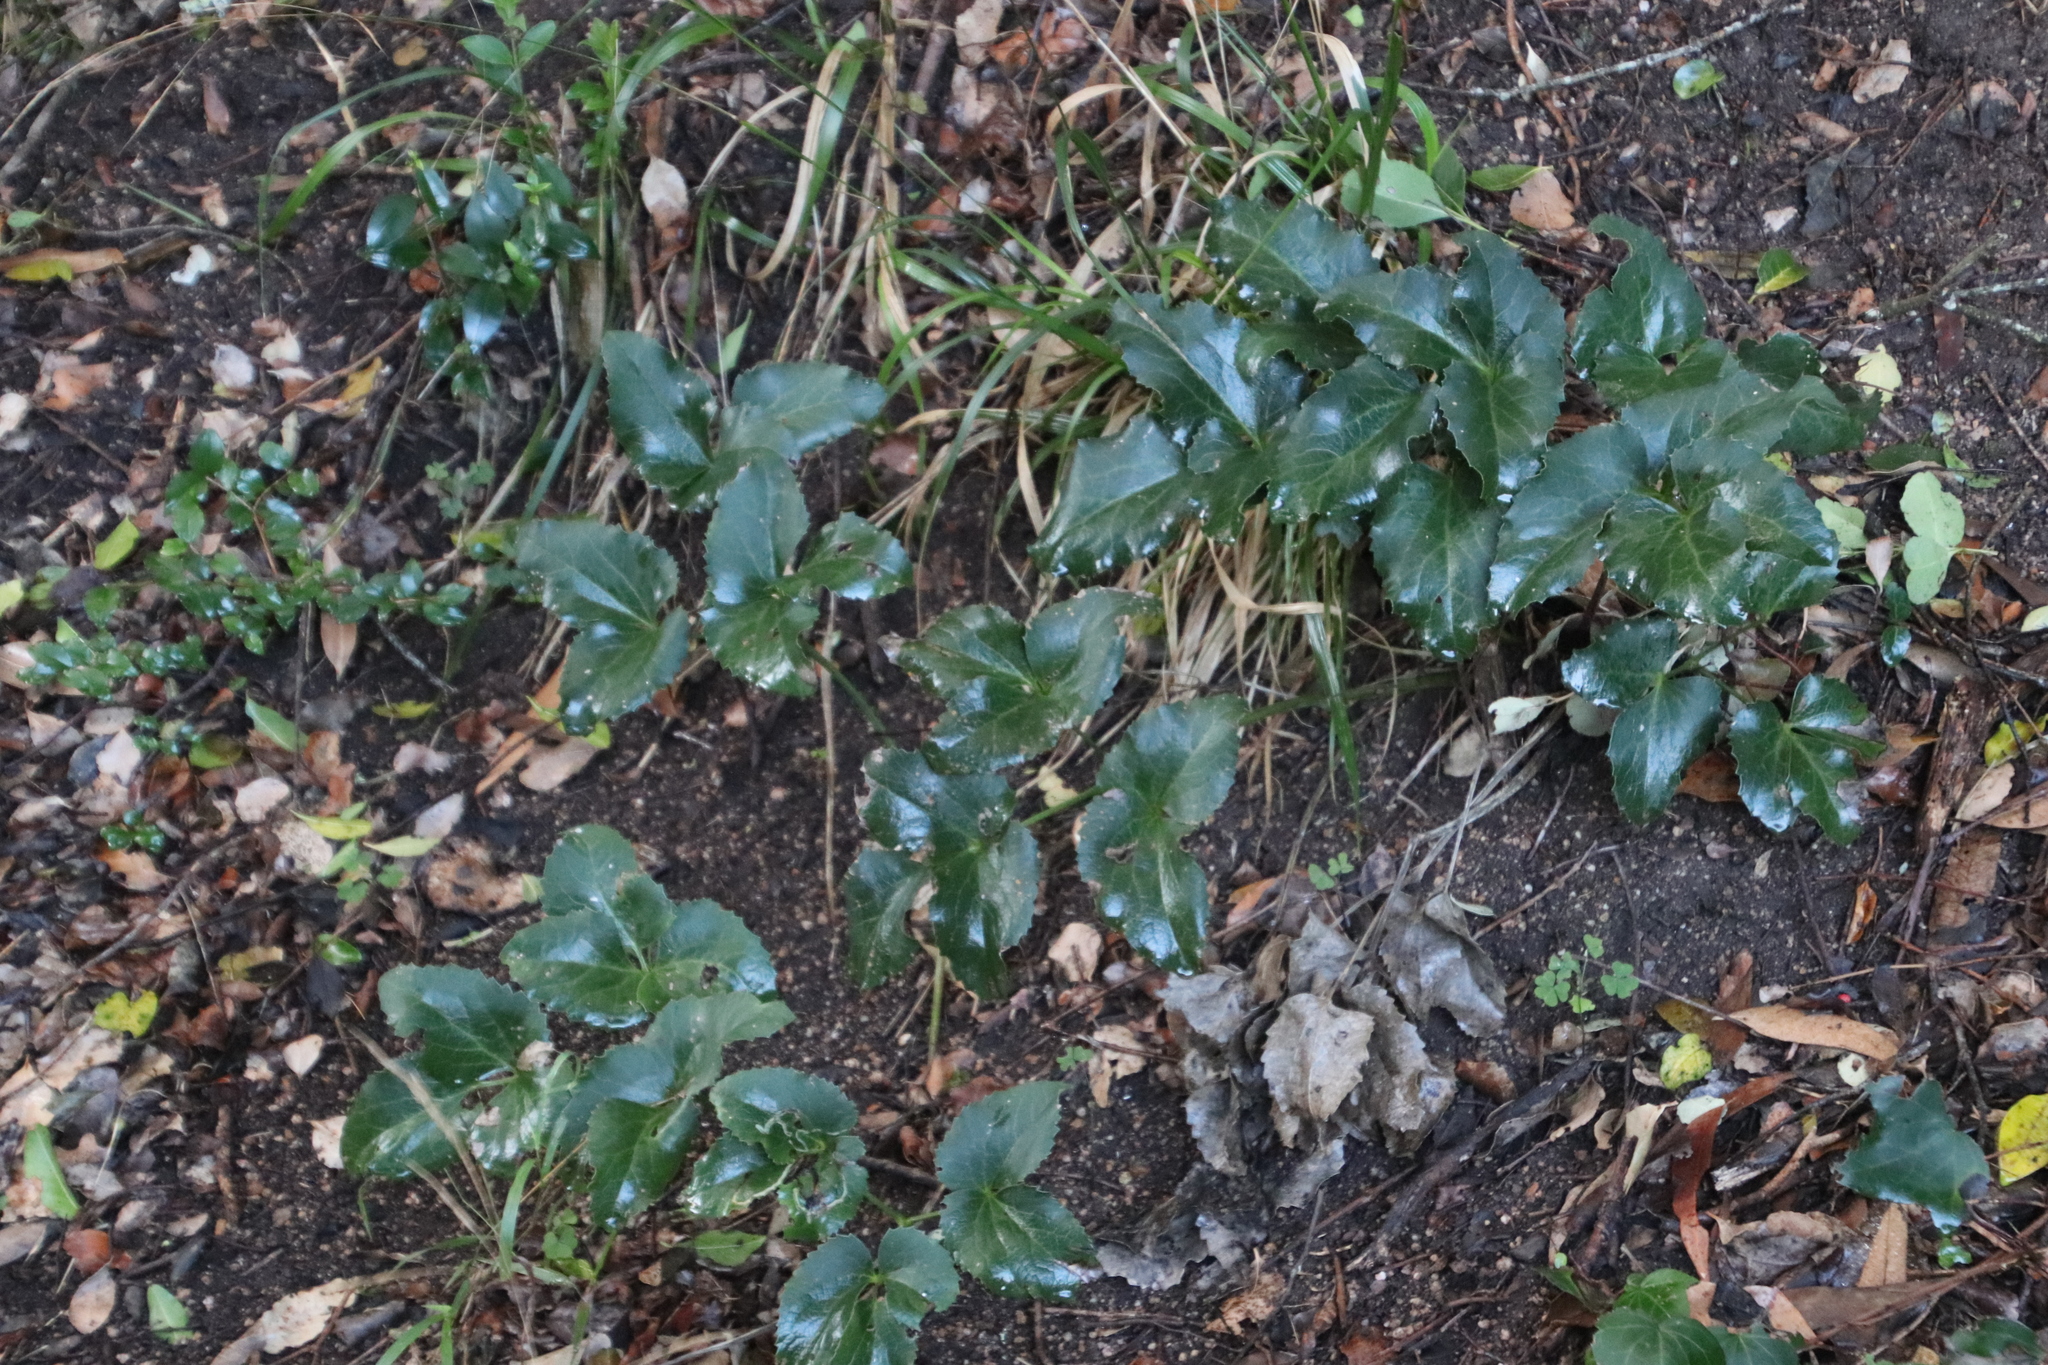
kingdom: Plantae
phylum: Tracheophyta
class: Magnoliopsida
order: Ranunculales
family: Ranunculaceae
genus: Knowltonia
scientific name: Knowltonia vesicatoria
